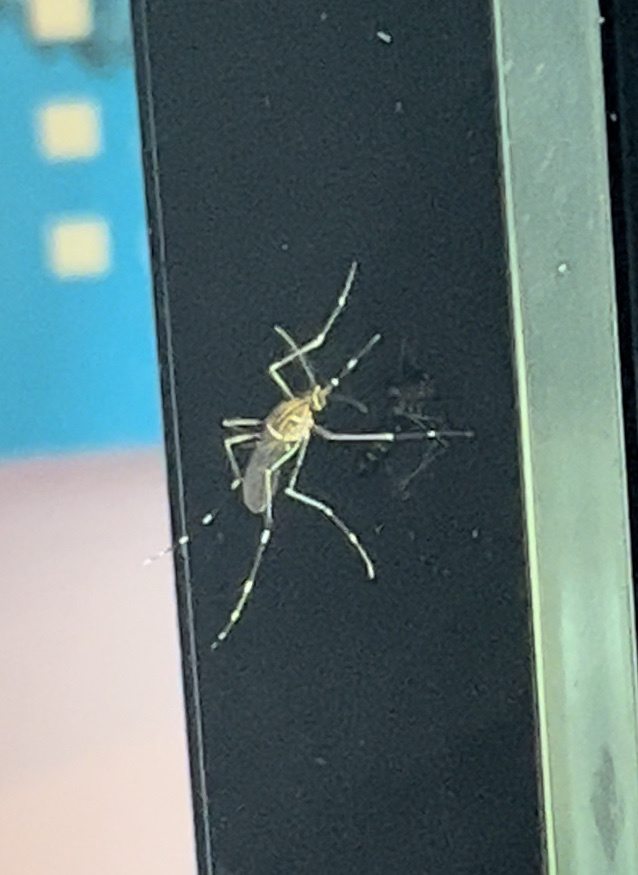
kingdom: Animalia
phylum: Arthropoda
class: Insecta
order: Diptera
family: Culicidae
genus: Aedes
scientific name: Aedes notoscriptus
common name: Australian backyard mosquito
